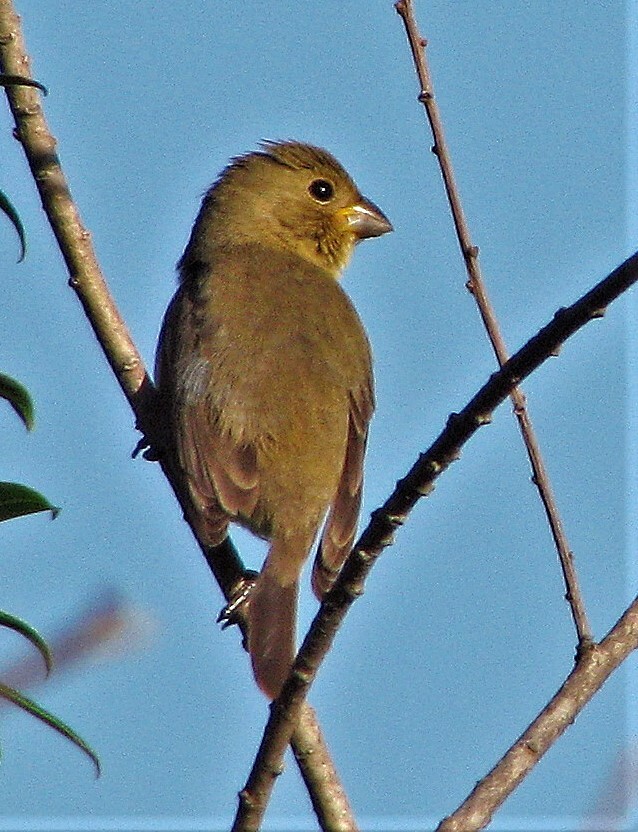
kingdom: Animalia
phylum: Chordata
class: Aves
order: Passeriformes
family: Thraupidae
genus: Sporophila
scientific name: Sporophila caerulescens
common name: Double-collared seedeater
